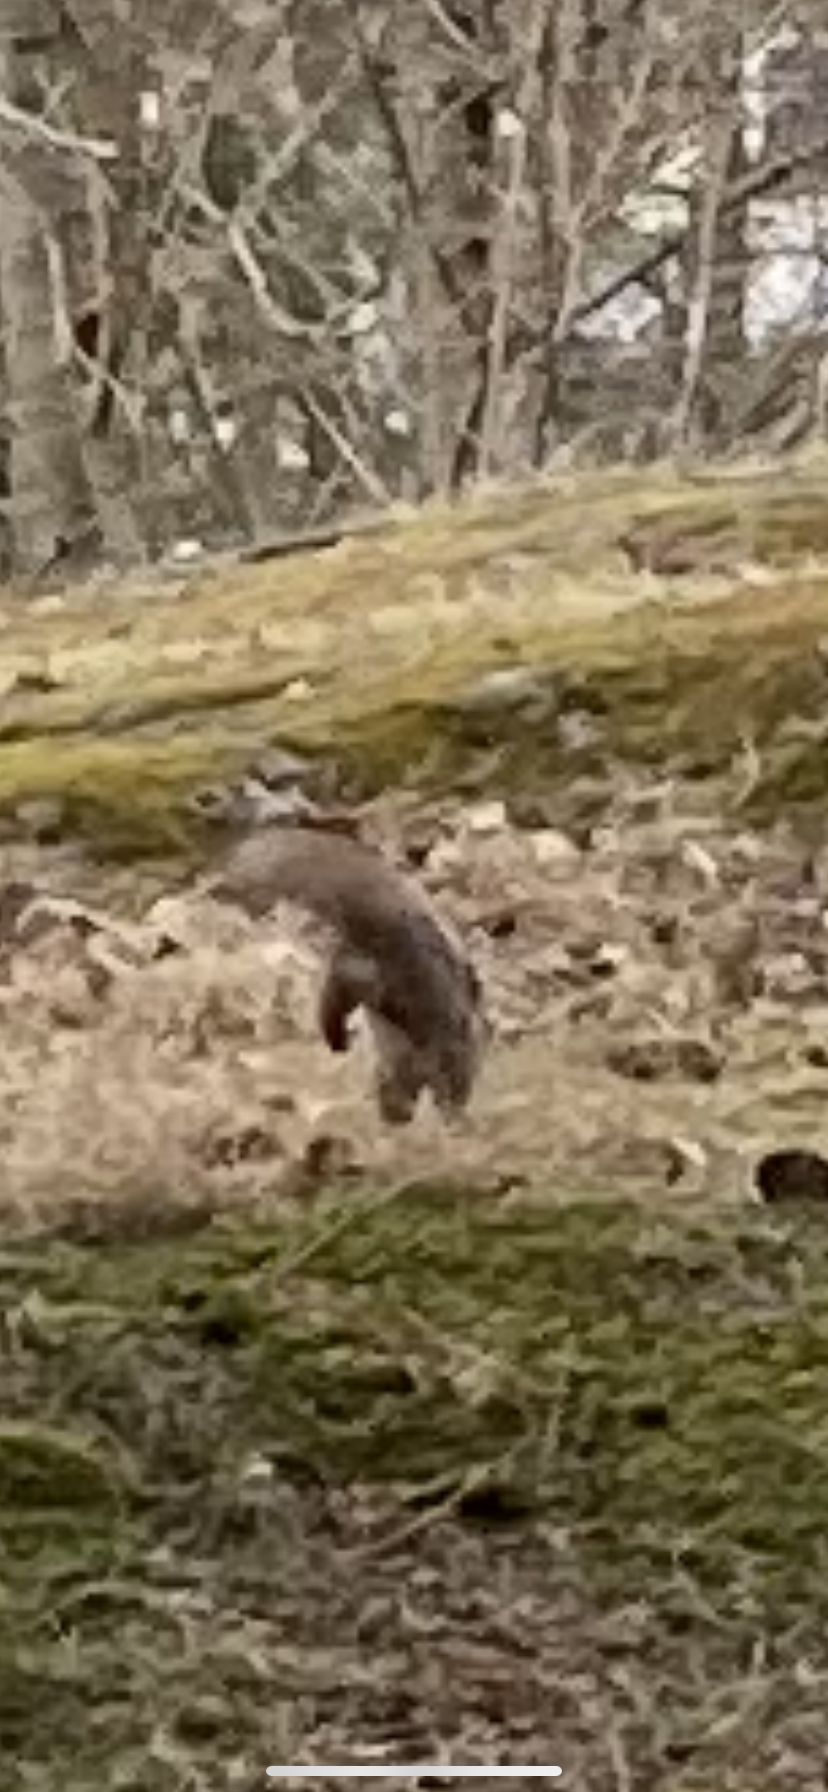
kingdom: Animalia
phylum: Chordata
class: Mammalia
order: Rodentia
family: Sciuridae
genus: Sciurus
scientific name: Sciurus vulgaris
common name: Eurasian red squirrel
